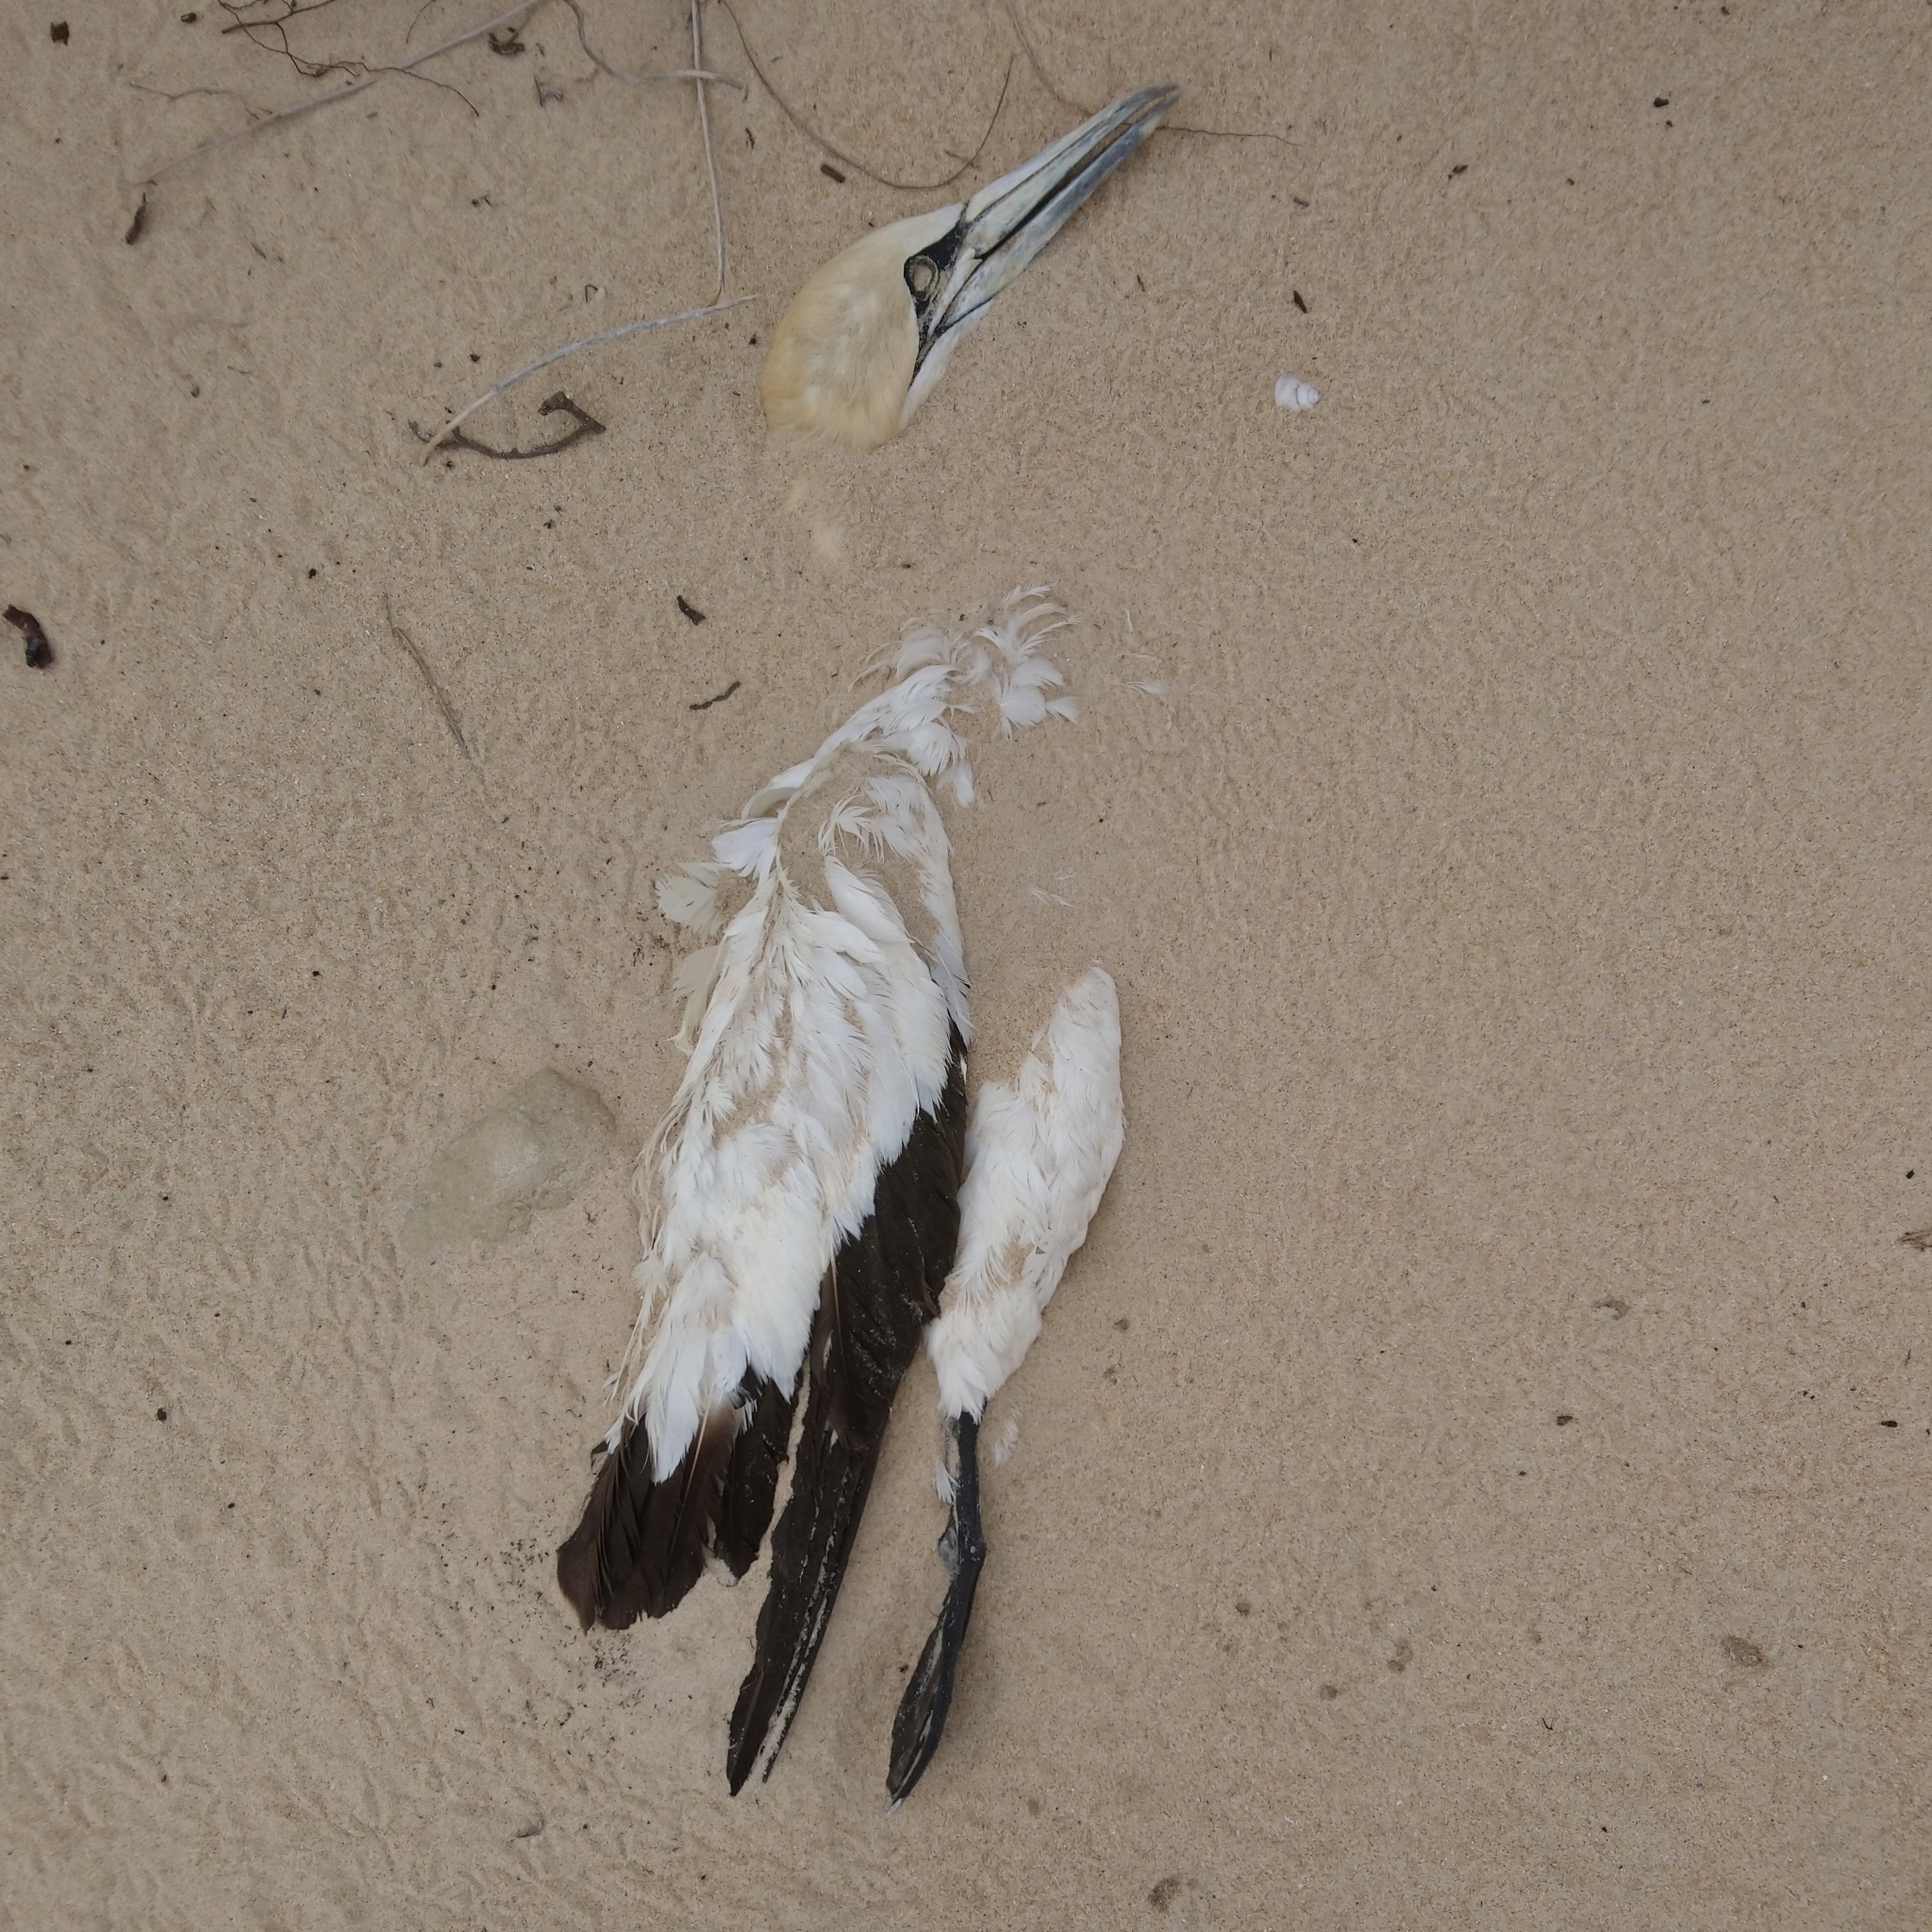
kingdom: Animalia
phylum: Chordata
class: Aves
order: Suliformes
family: Sulidae
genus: Morus
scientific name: Morus capensis
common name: Cape gannet
